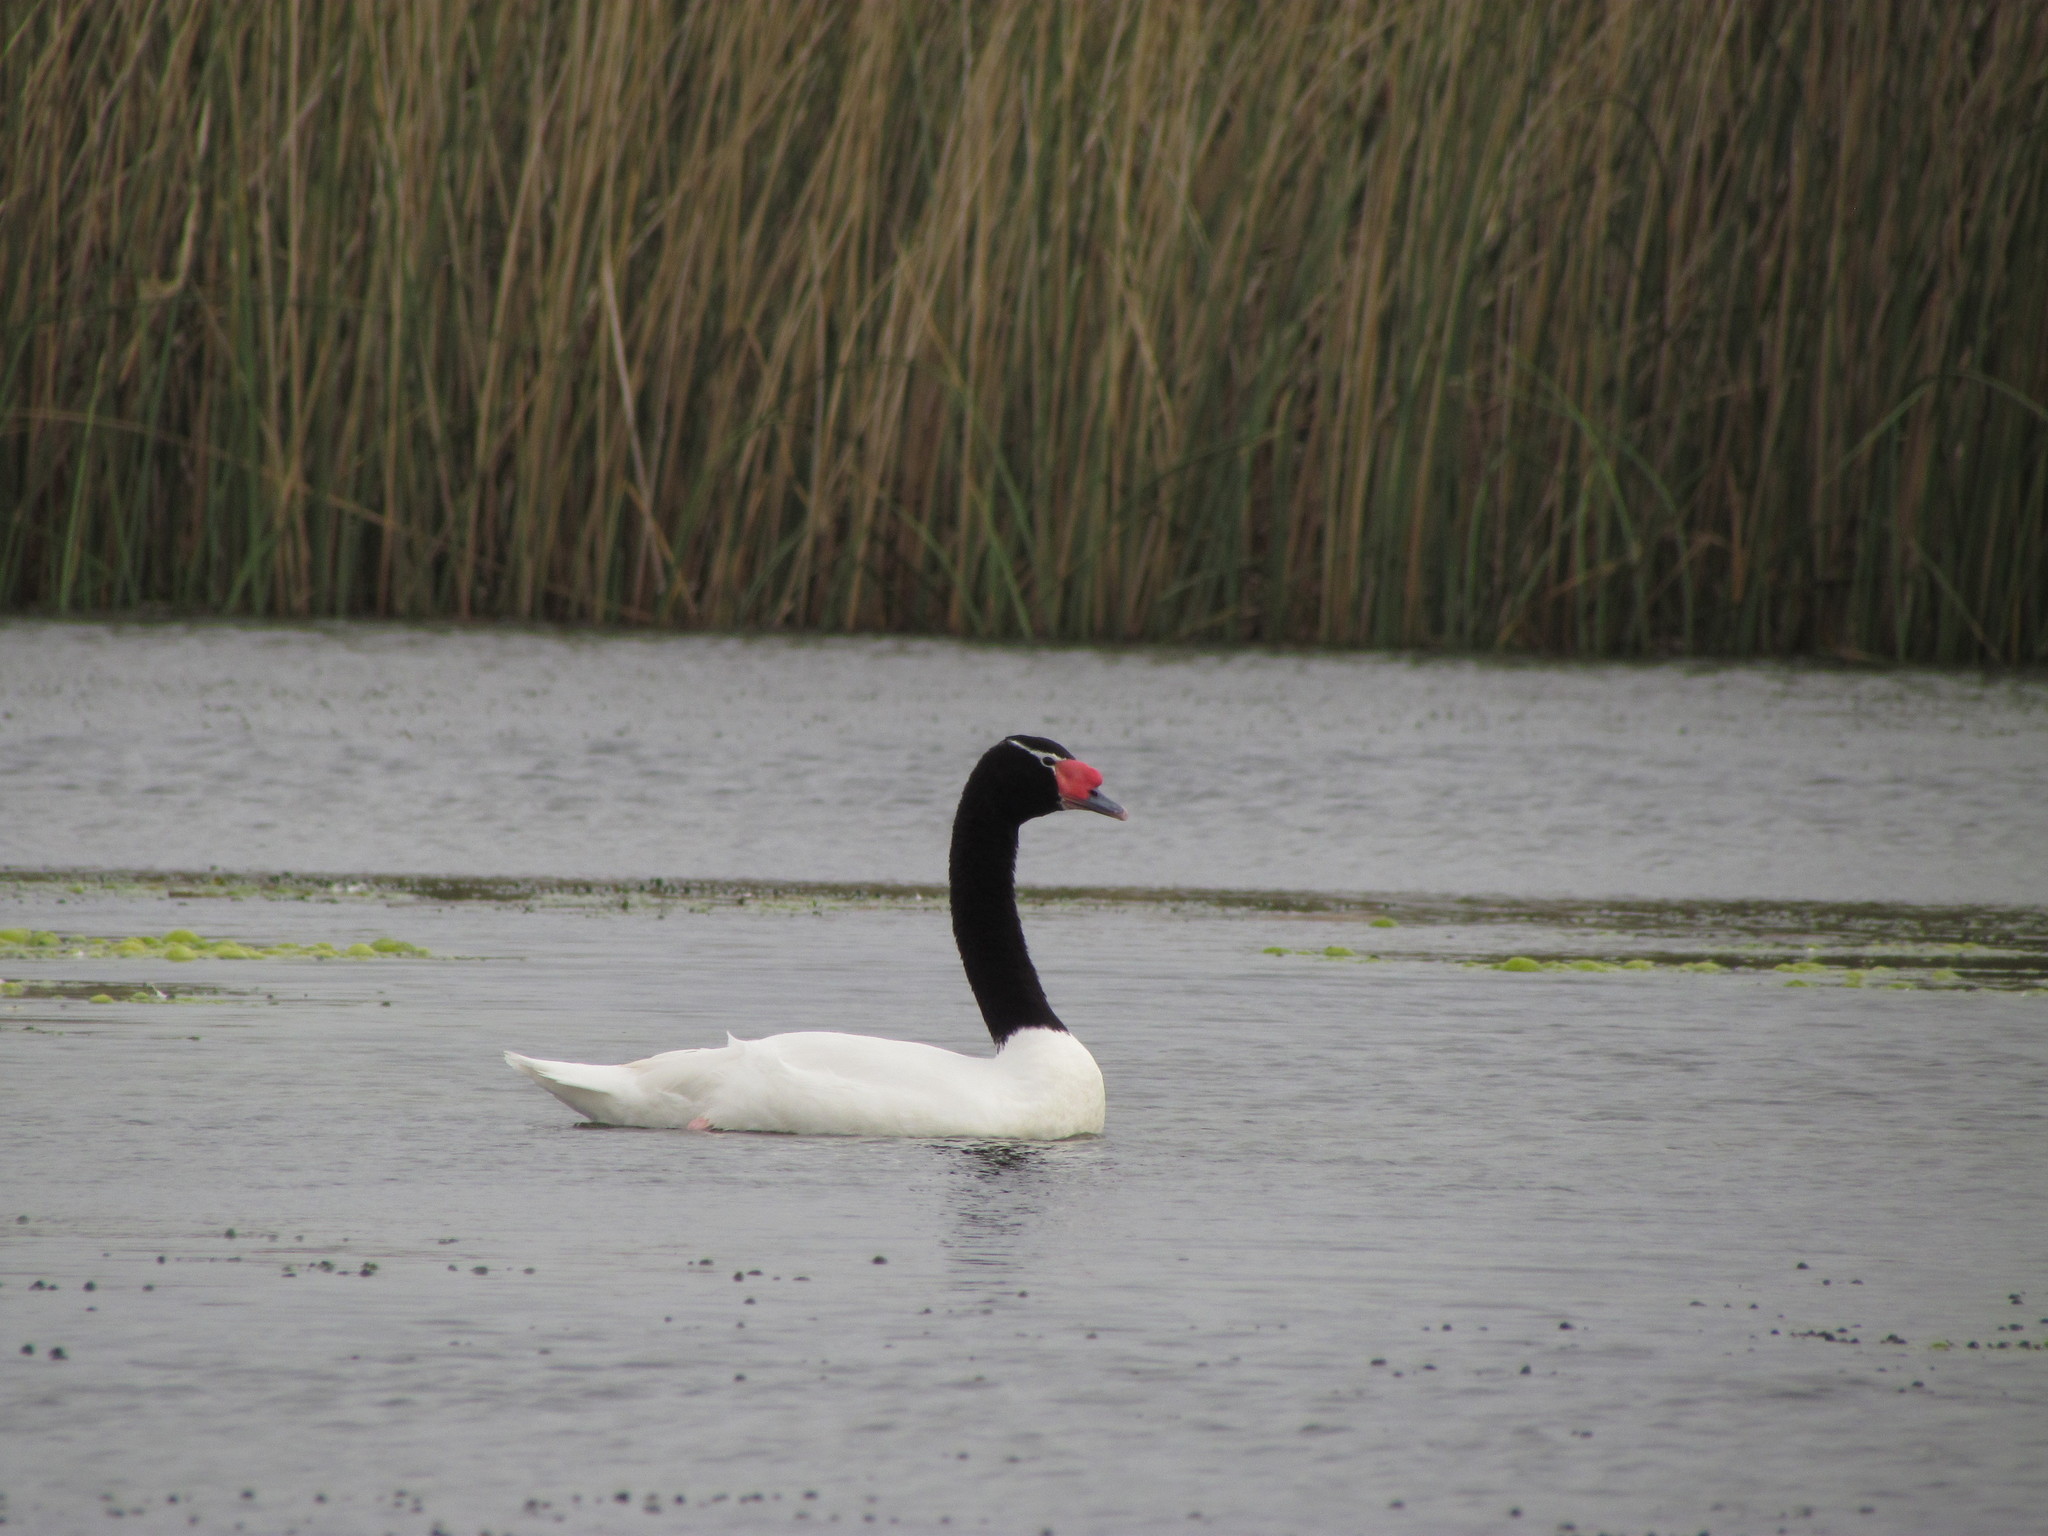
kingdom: Animalia
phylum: Chordata
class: Aves
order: Anseriformes
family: Anatidae
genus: Cygnus
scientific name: Cygnus melancoryphus
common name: Black-necked swan
